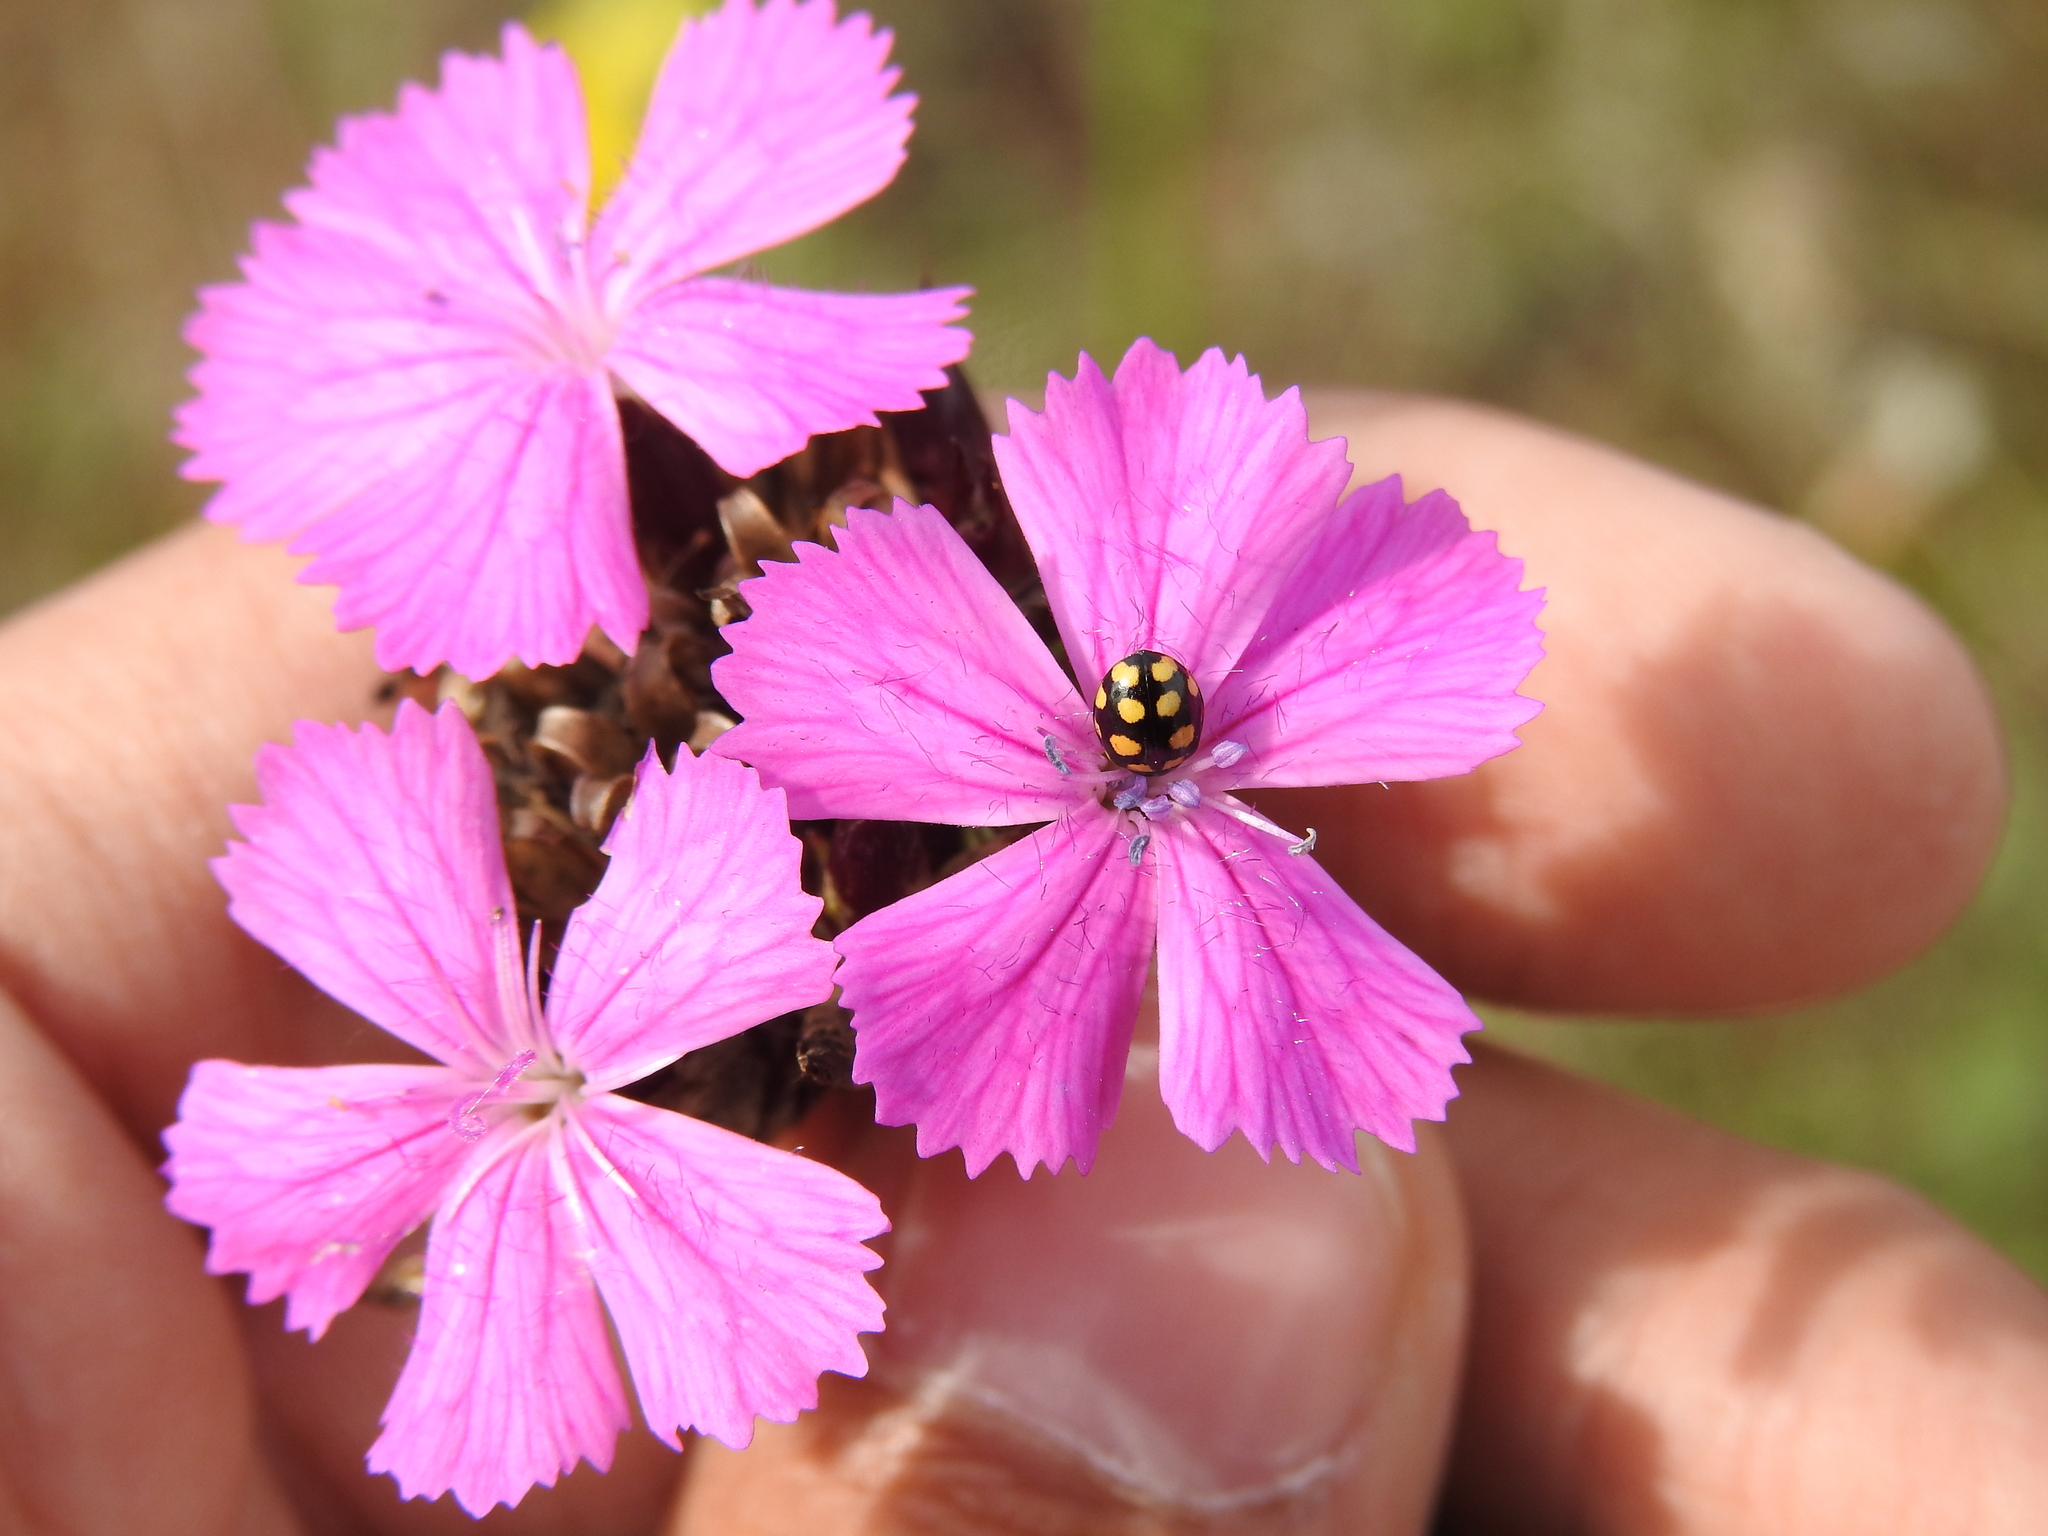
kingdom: Animalia
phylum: Arthropoda
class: Insecta
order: Coleoptera
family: Coccinellidae
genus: Coccinula
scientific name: Coccinula quatuordecimpustulata
